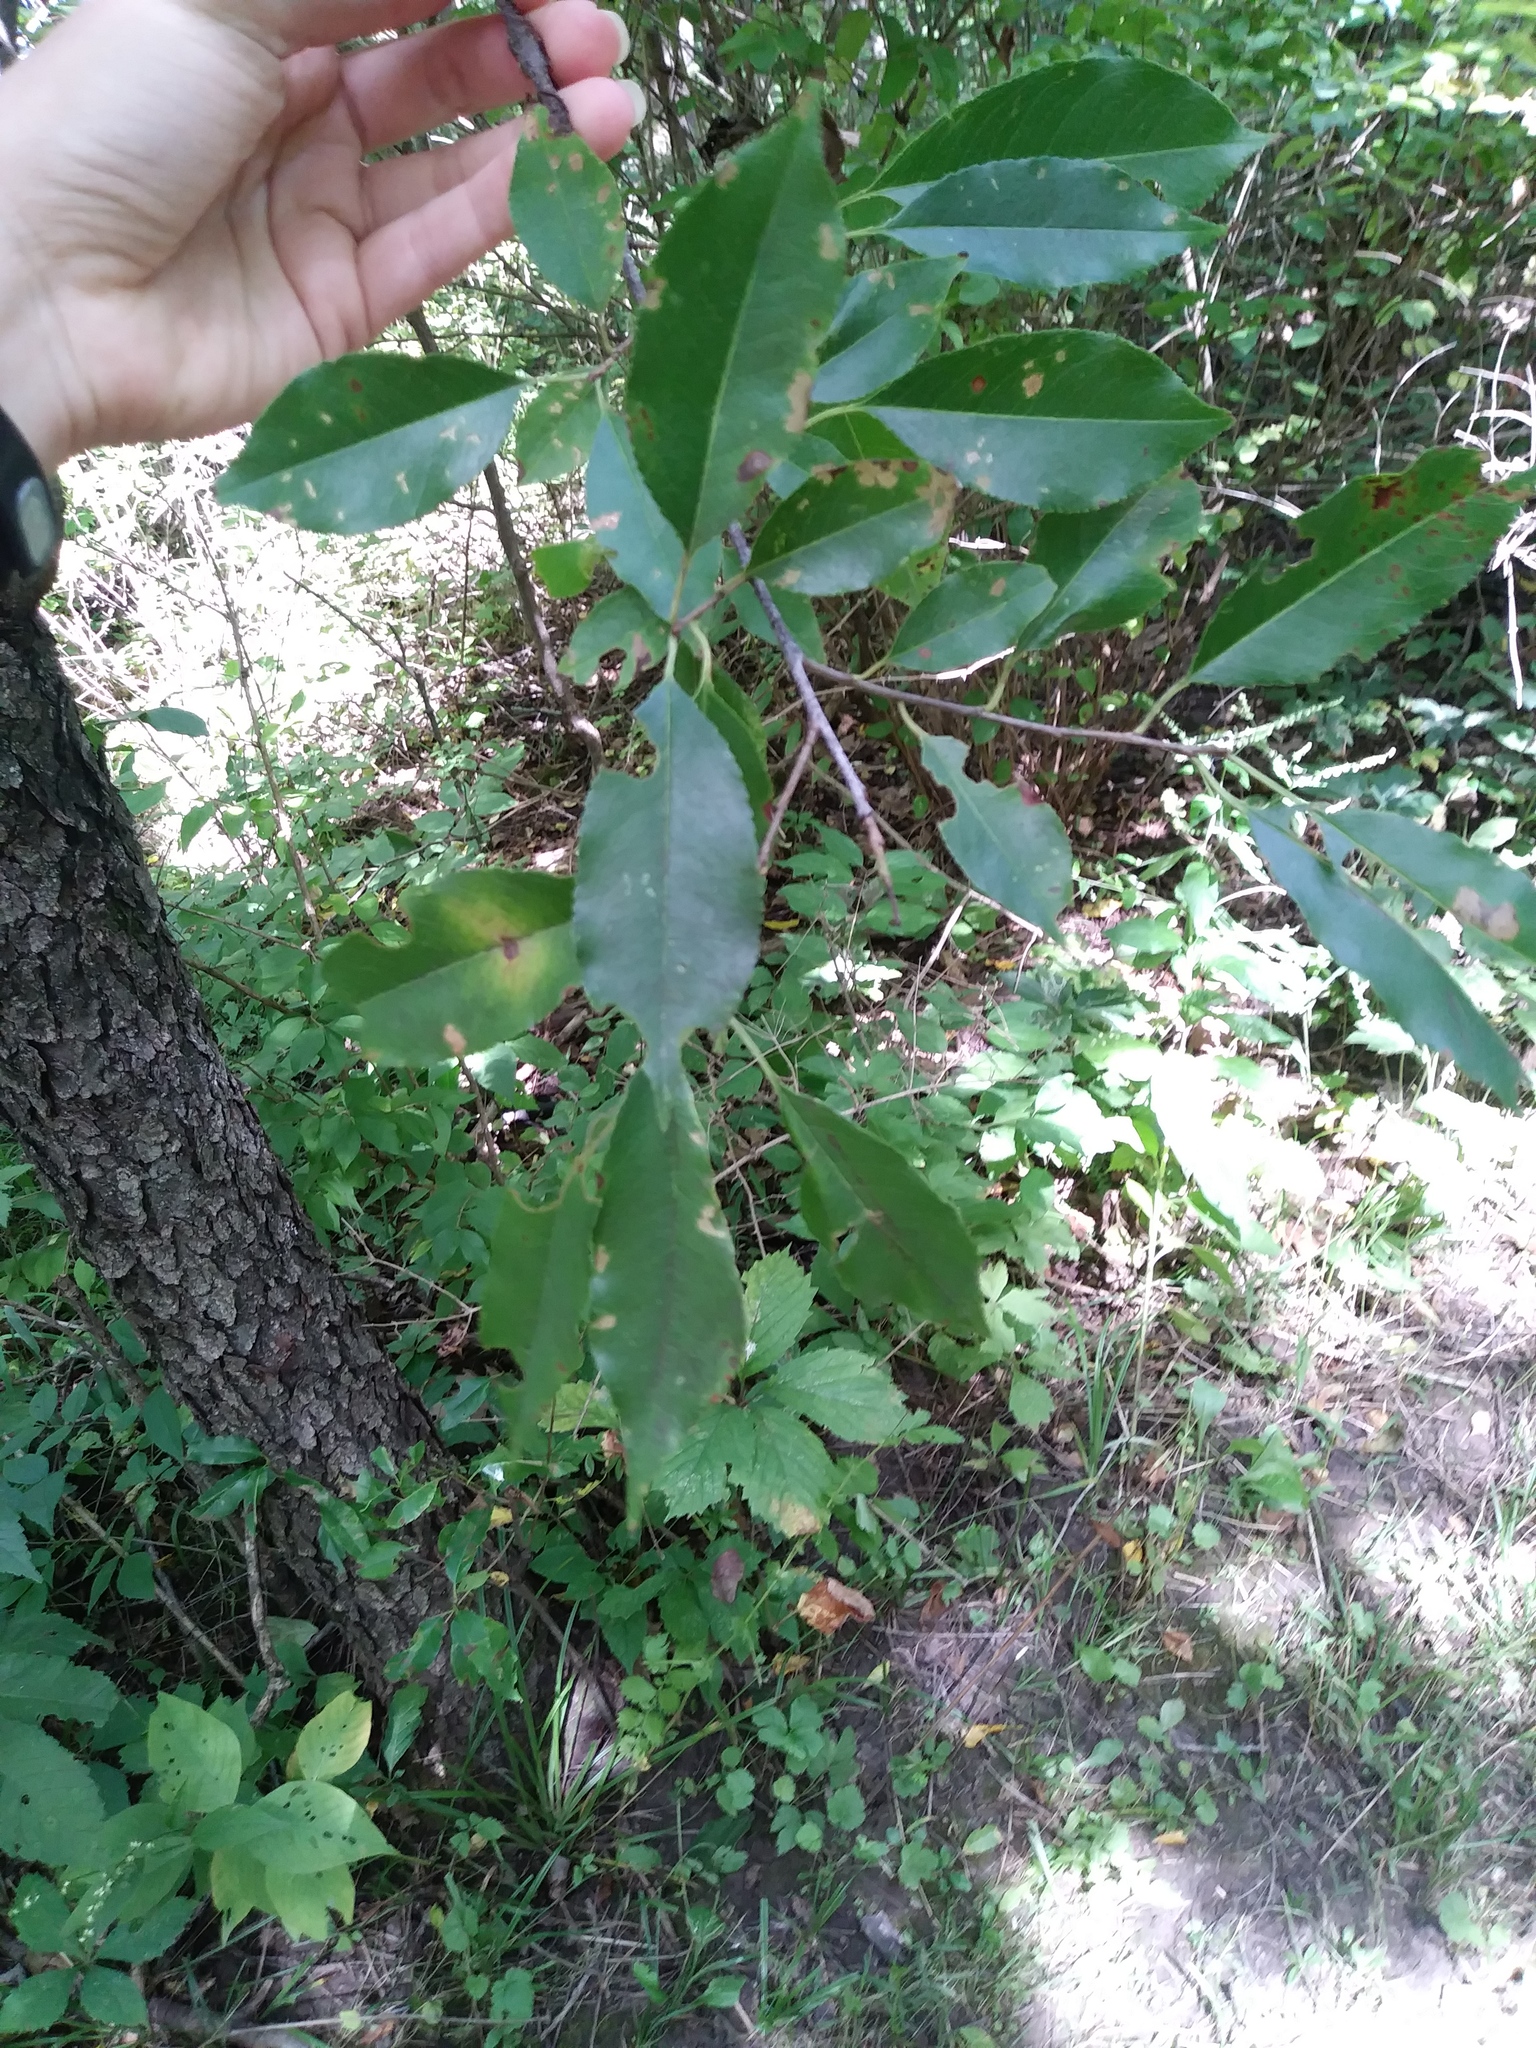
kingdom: Plantae
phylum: Tracheophyta
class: Magnoliopsida
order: Rosales
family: Rosaceae
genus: Prunus
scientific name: Prunus serotina
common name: Black cherry
